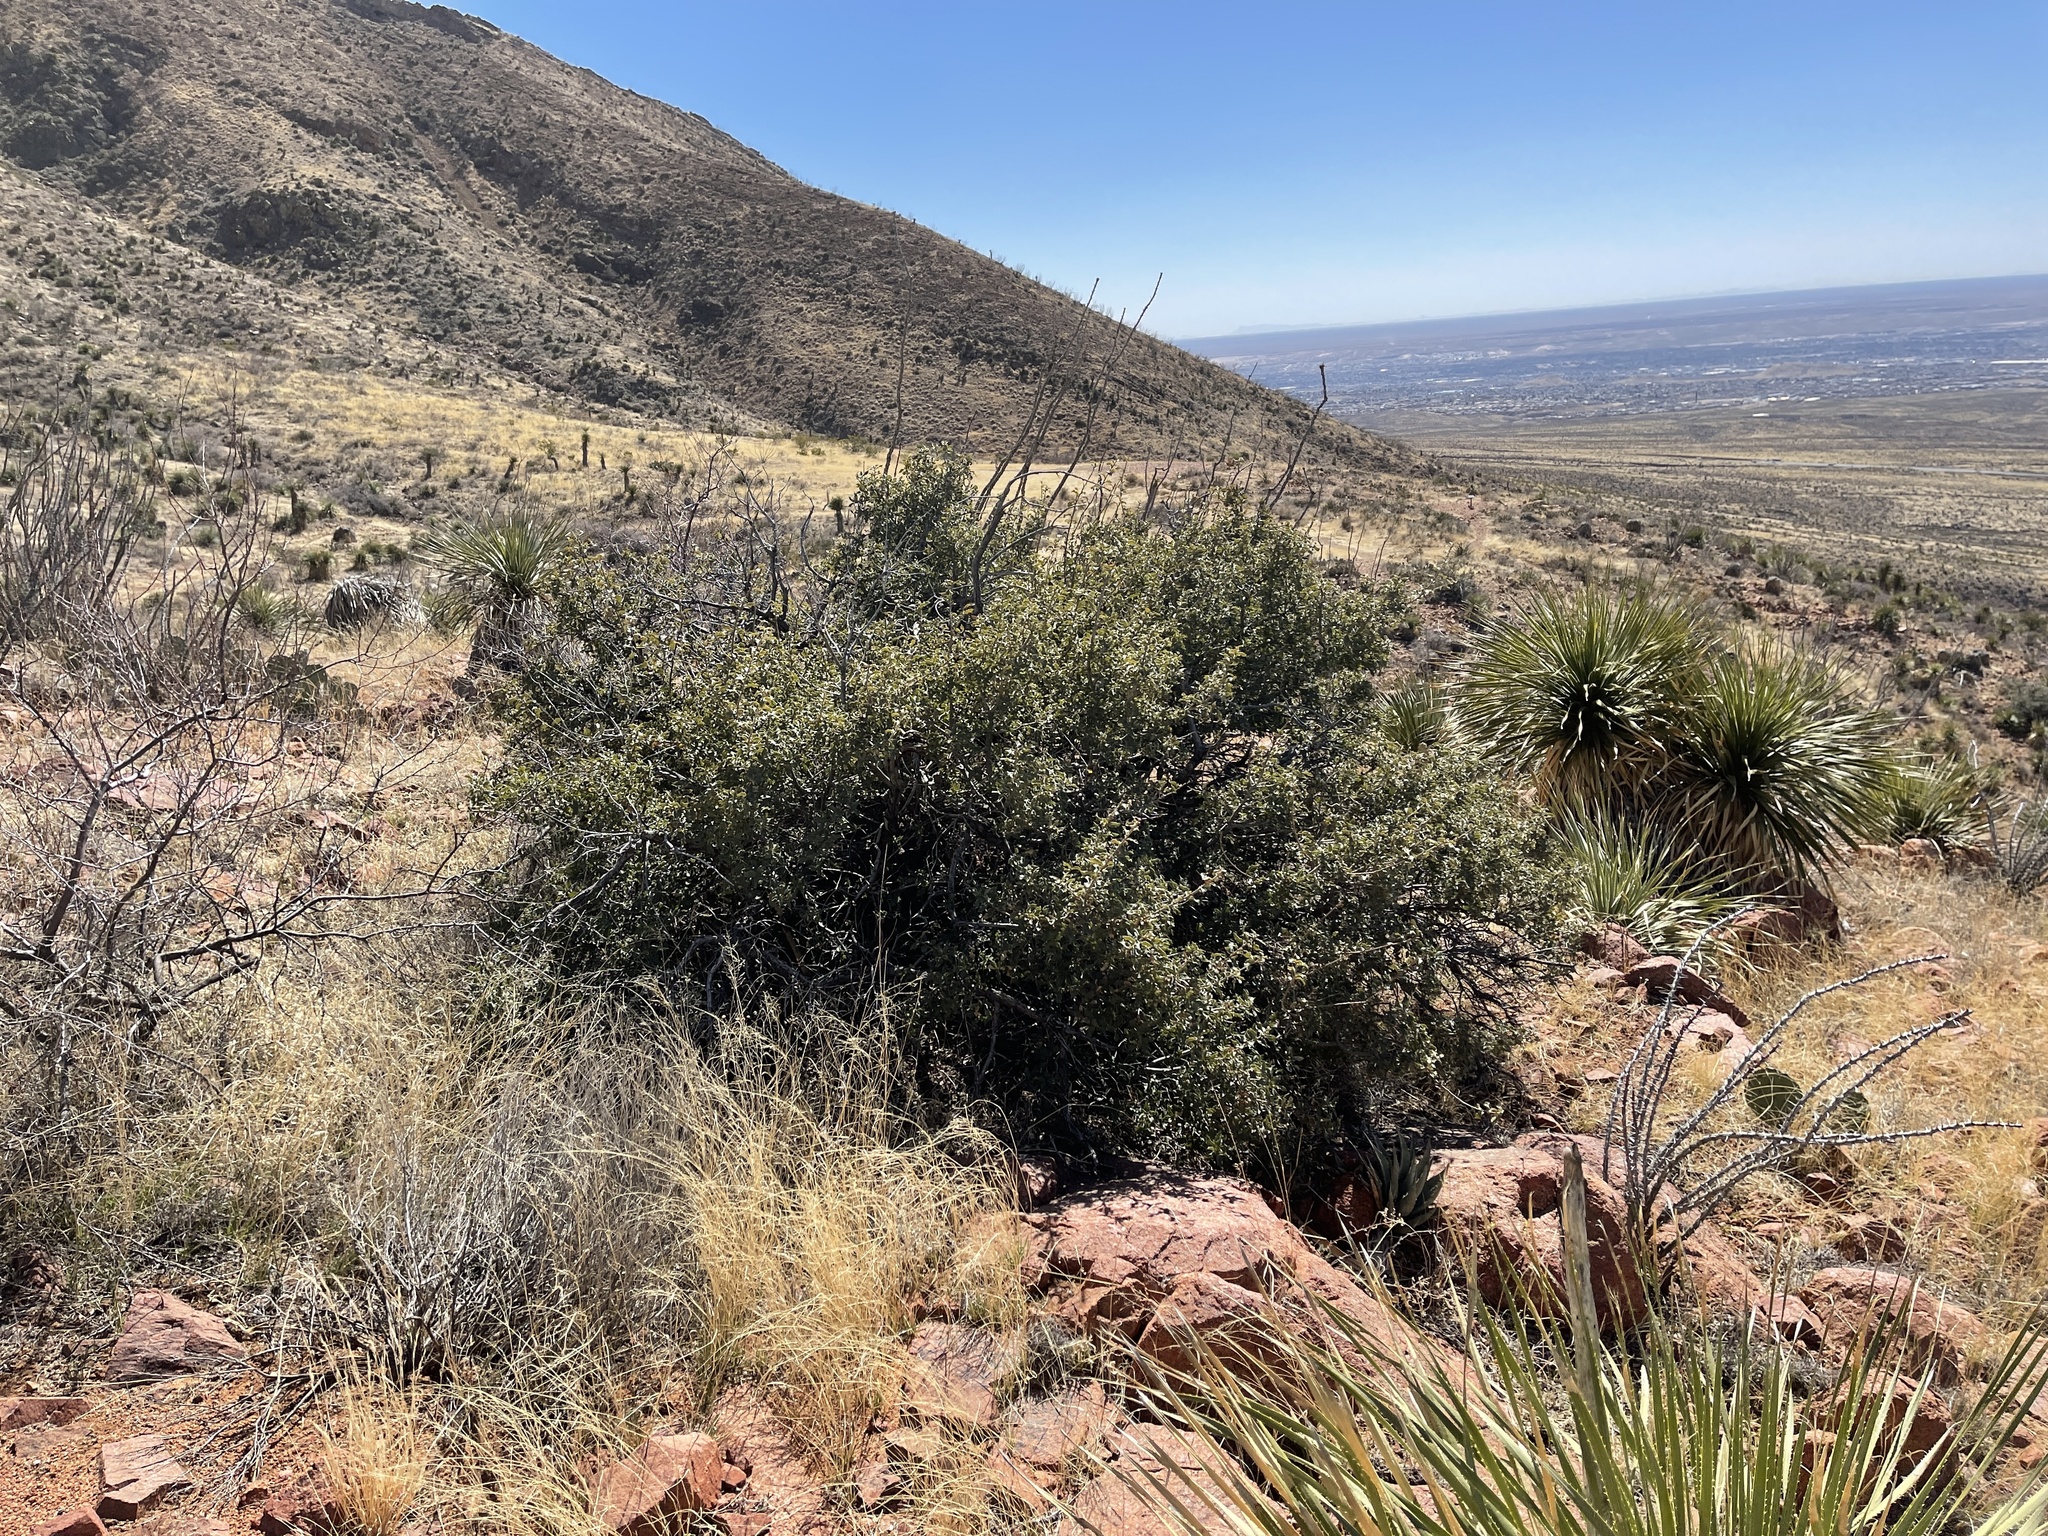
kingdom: Plantae
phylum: Tracheophyta
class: Magnoliopsida
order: Fagales
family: Fagaceae
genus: Quercus
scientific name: Quercus turbinella
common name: Sonoran scrub oak
